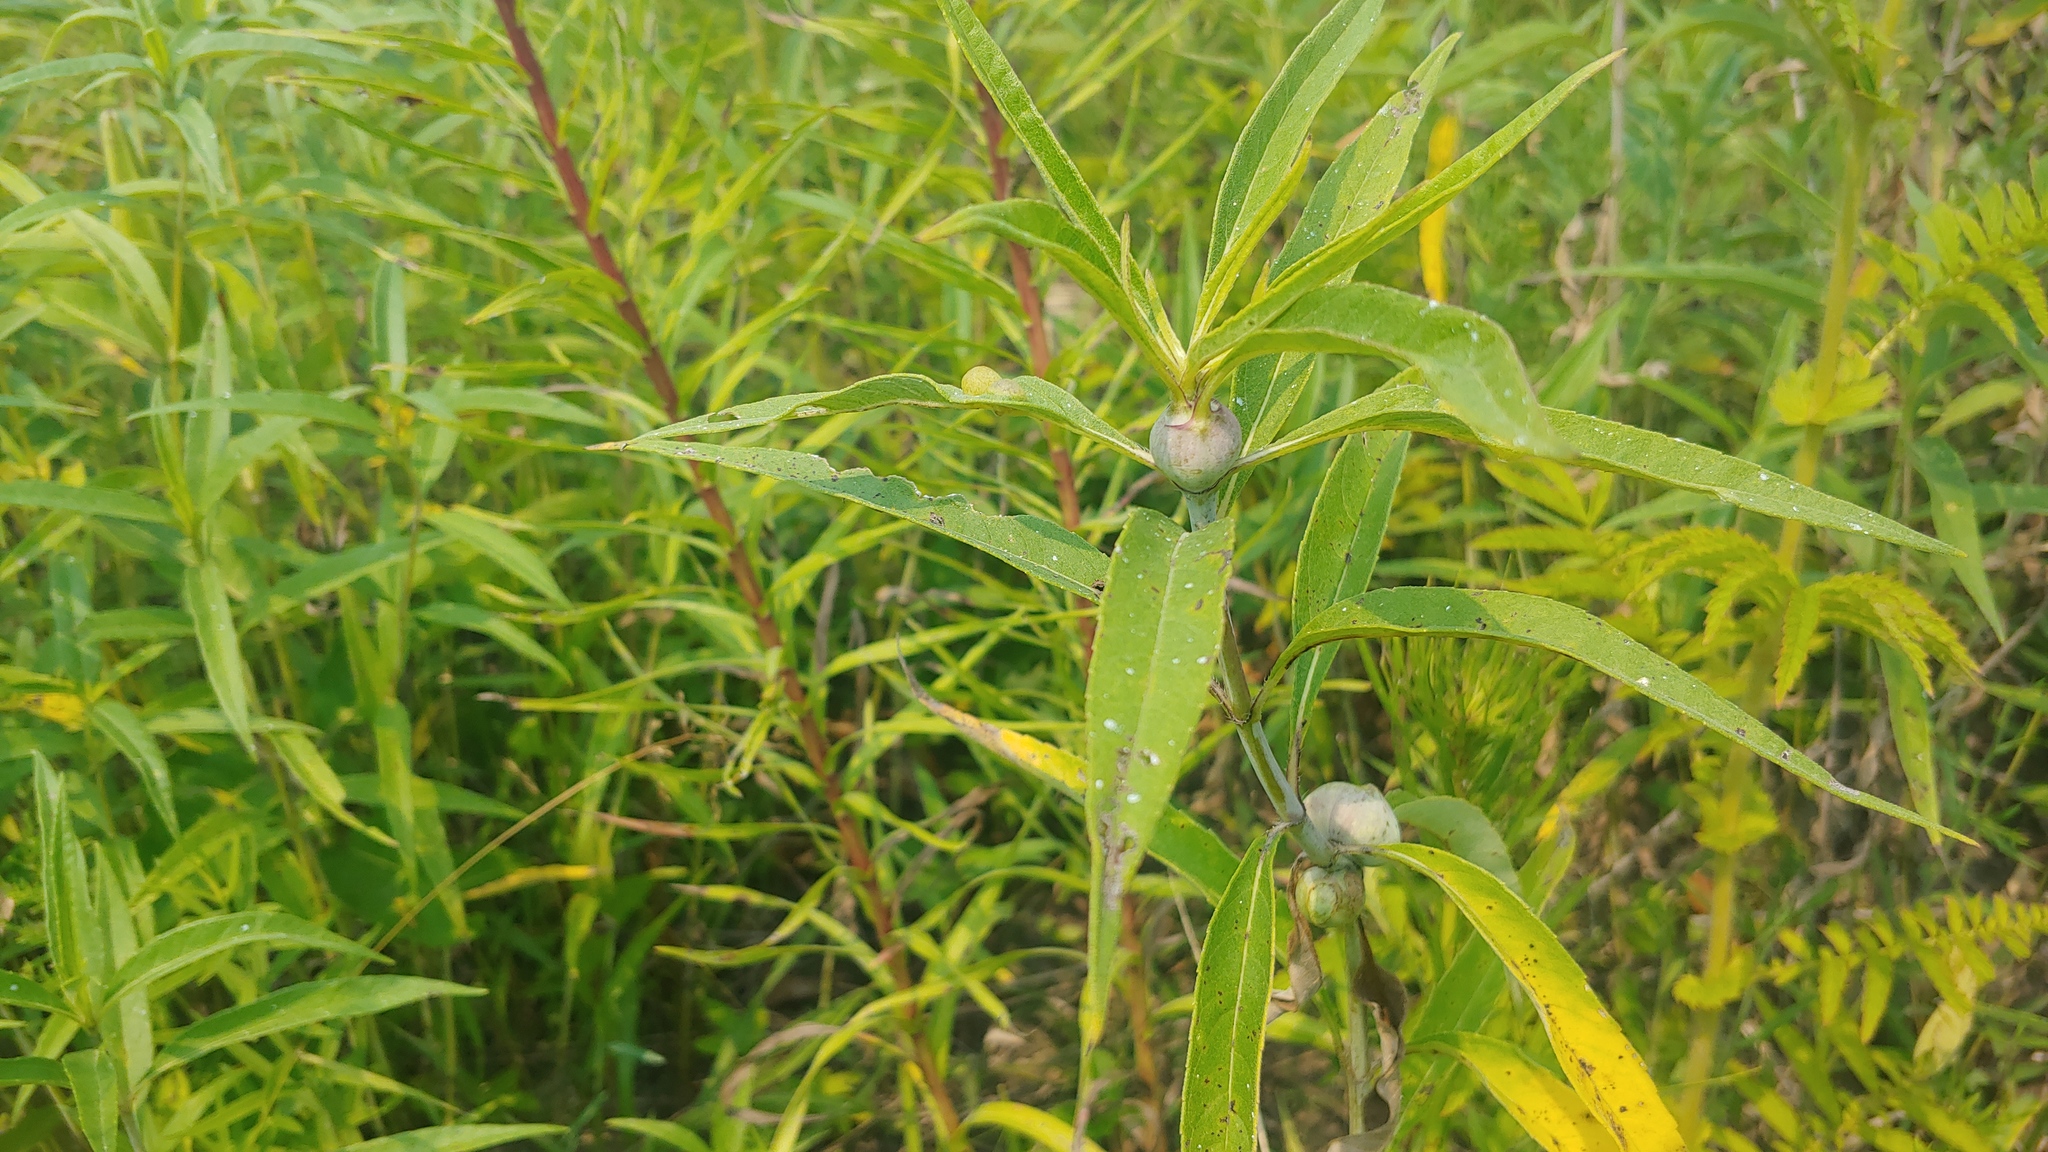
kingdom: Animalia
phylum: Arthropoda
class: Insecta
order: Diptera
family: Cecidomyiidae
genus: Pilodiplosis
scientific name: Pilodiplosis helianthibulla
